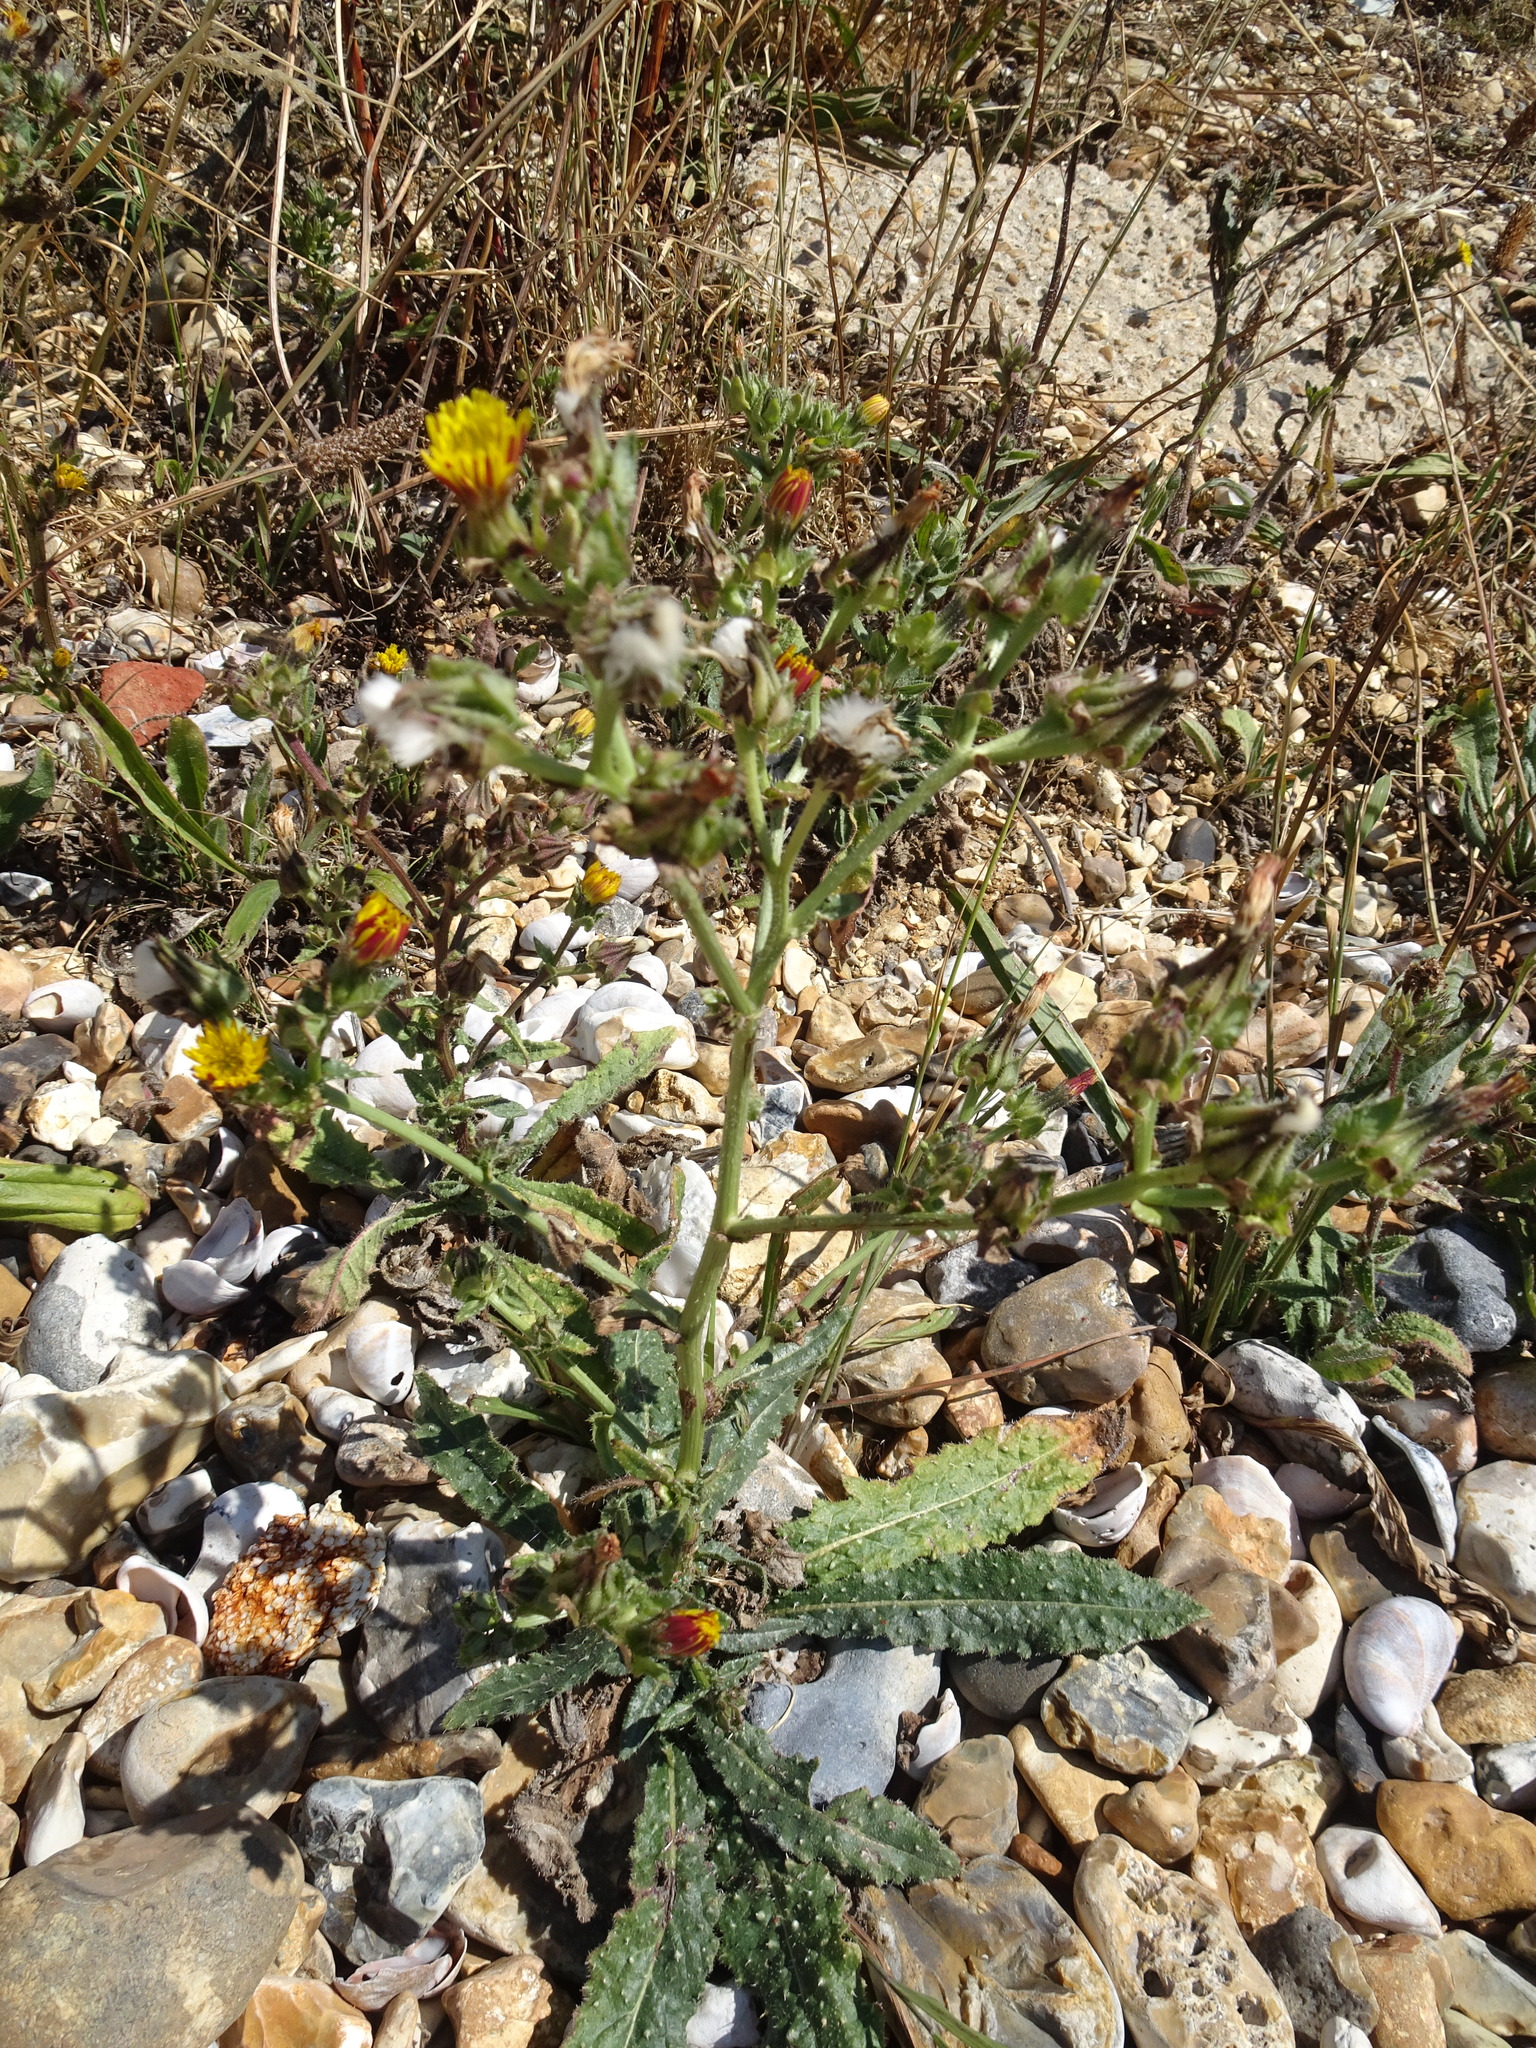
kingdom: Plantae
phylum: Tracheophyta
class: Magnoliopsida
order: Asterales
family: Asteraceae
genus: Helminthotheca
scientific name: Helminthotheca echioides
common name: Ox-tongue
